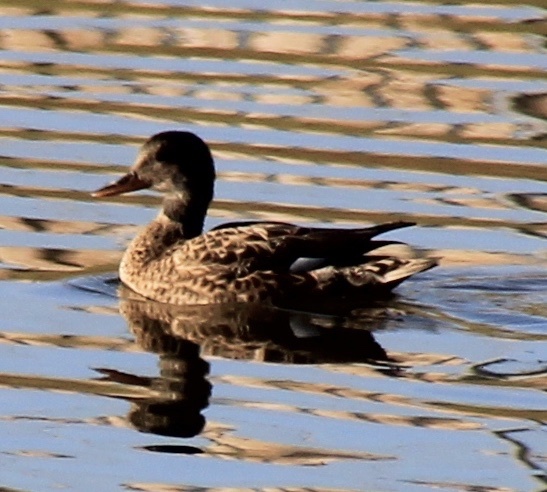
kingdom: Animalia
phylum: Chordata
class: Aves
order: Anseriformes
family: Anatidae
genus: Mareca
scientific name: Mareca strepera
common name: Gadwall
